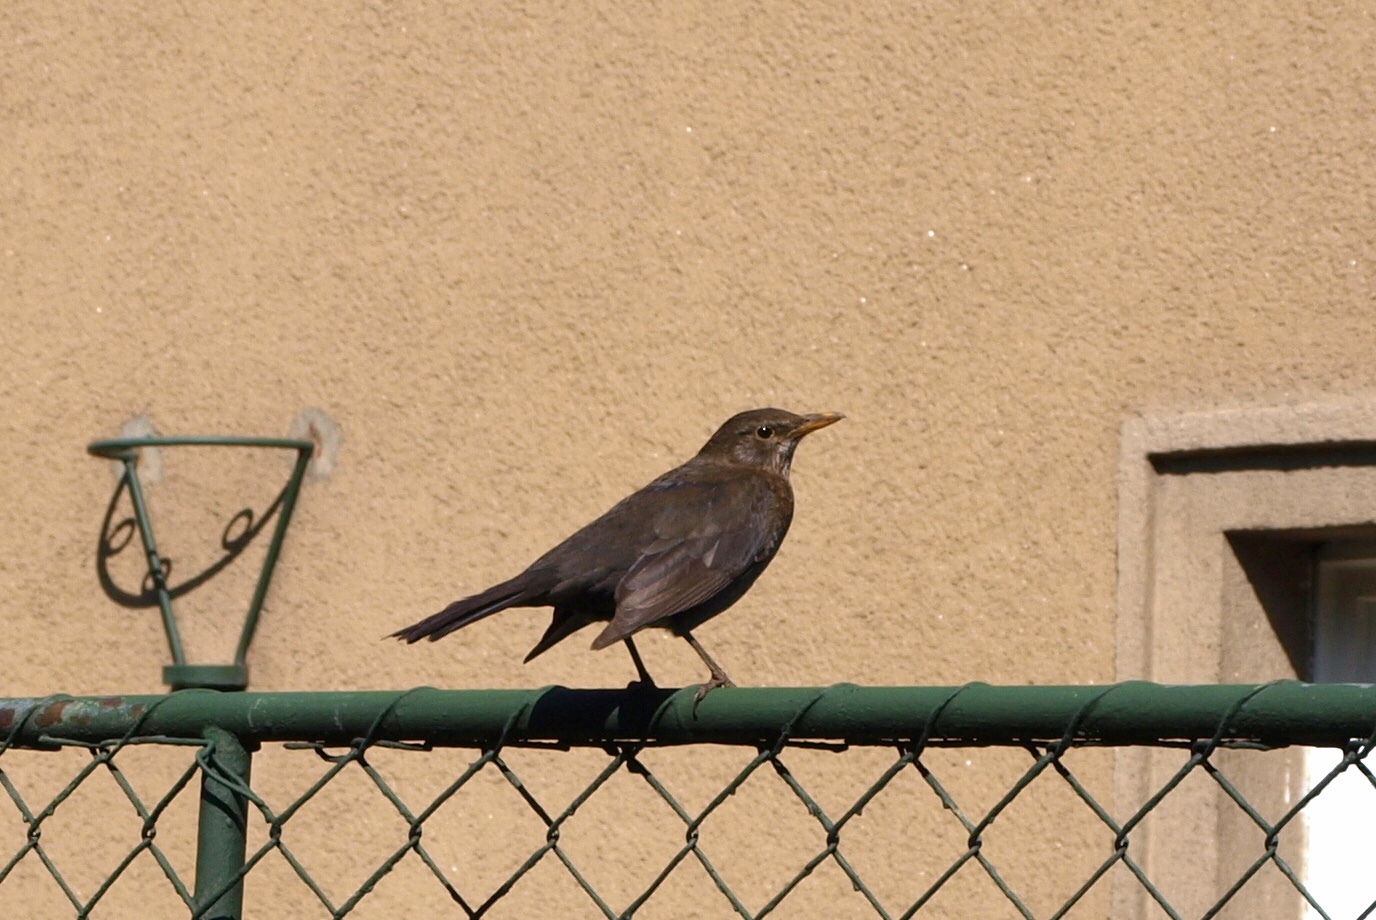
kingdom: Animalia
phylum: Chordata
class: Aves
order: Passeriformes
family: Turdidae
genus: Turdus
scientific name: Turdus merula
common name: Common blackbird
